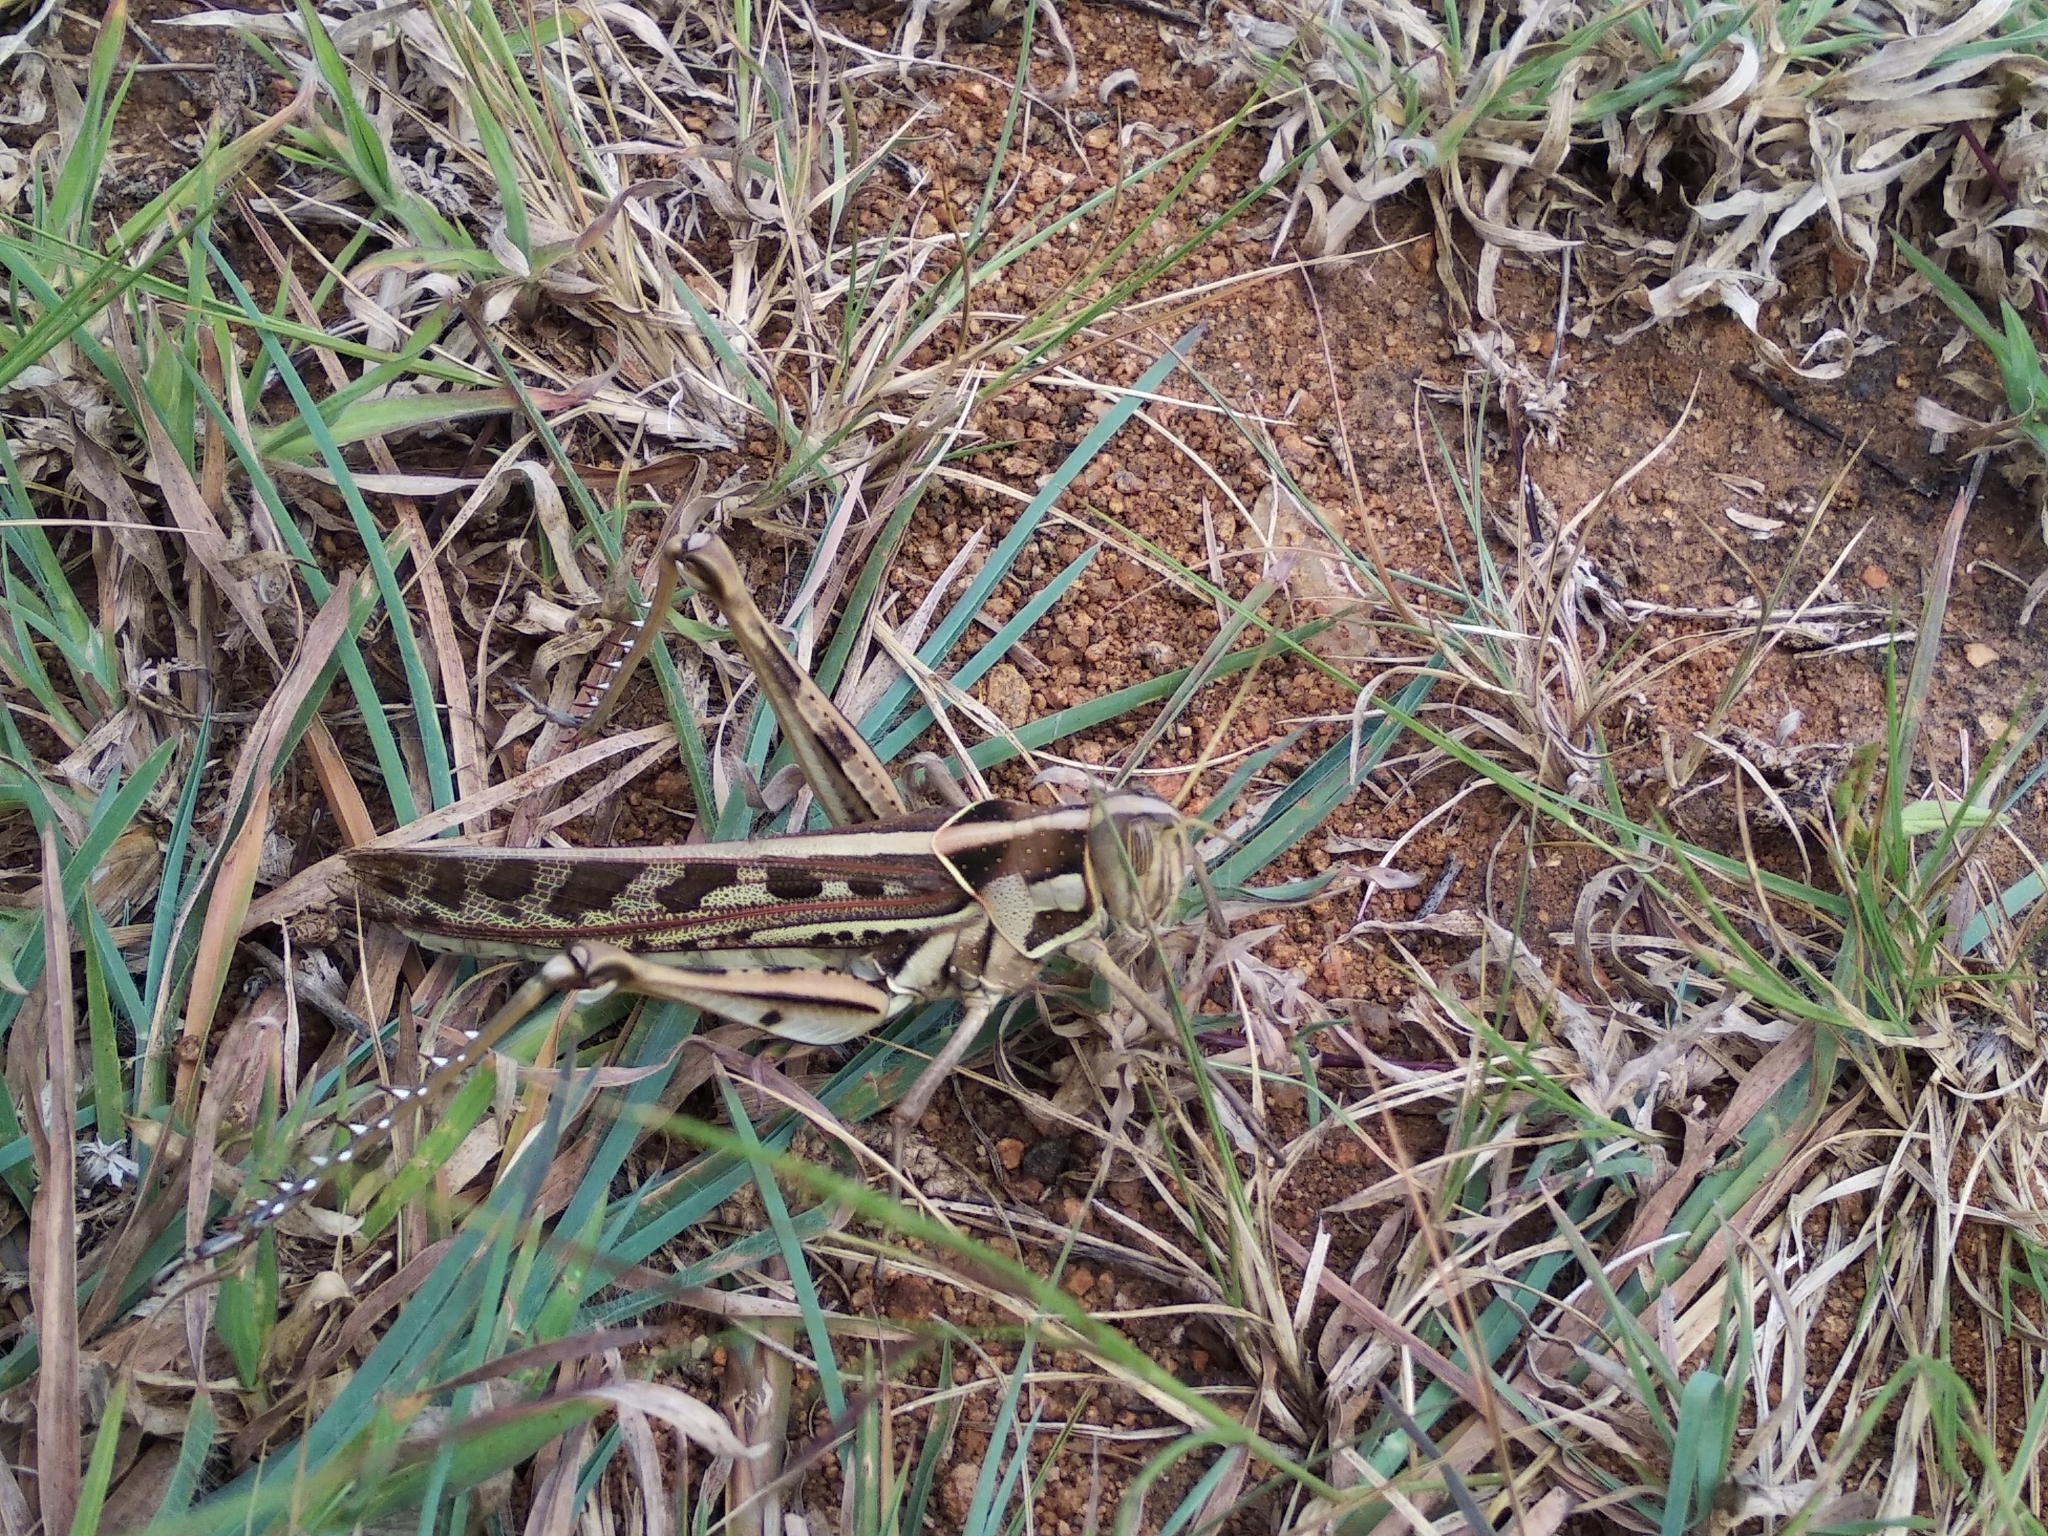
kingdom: Animalia
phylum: Arthropoda
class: Insecta
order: Orthoptera
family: Acrididae
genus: Cyrtacanthacris
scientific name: Cyrtacanthacris tatarica
